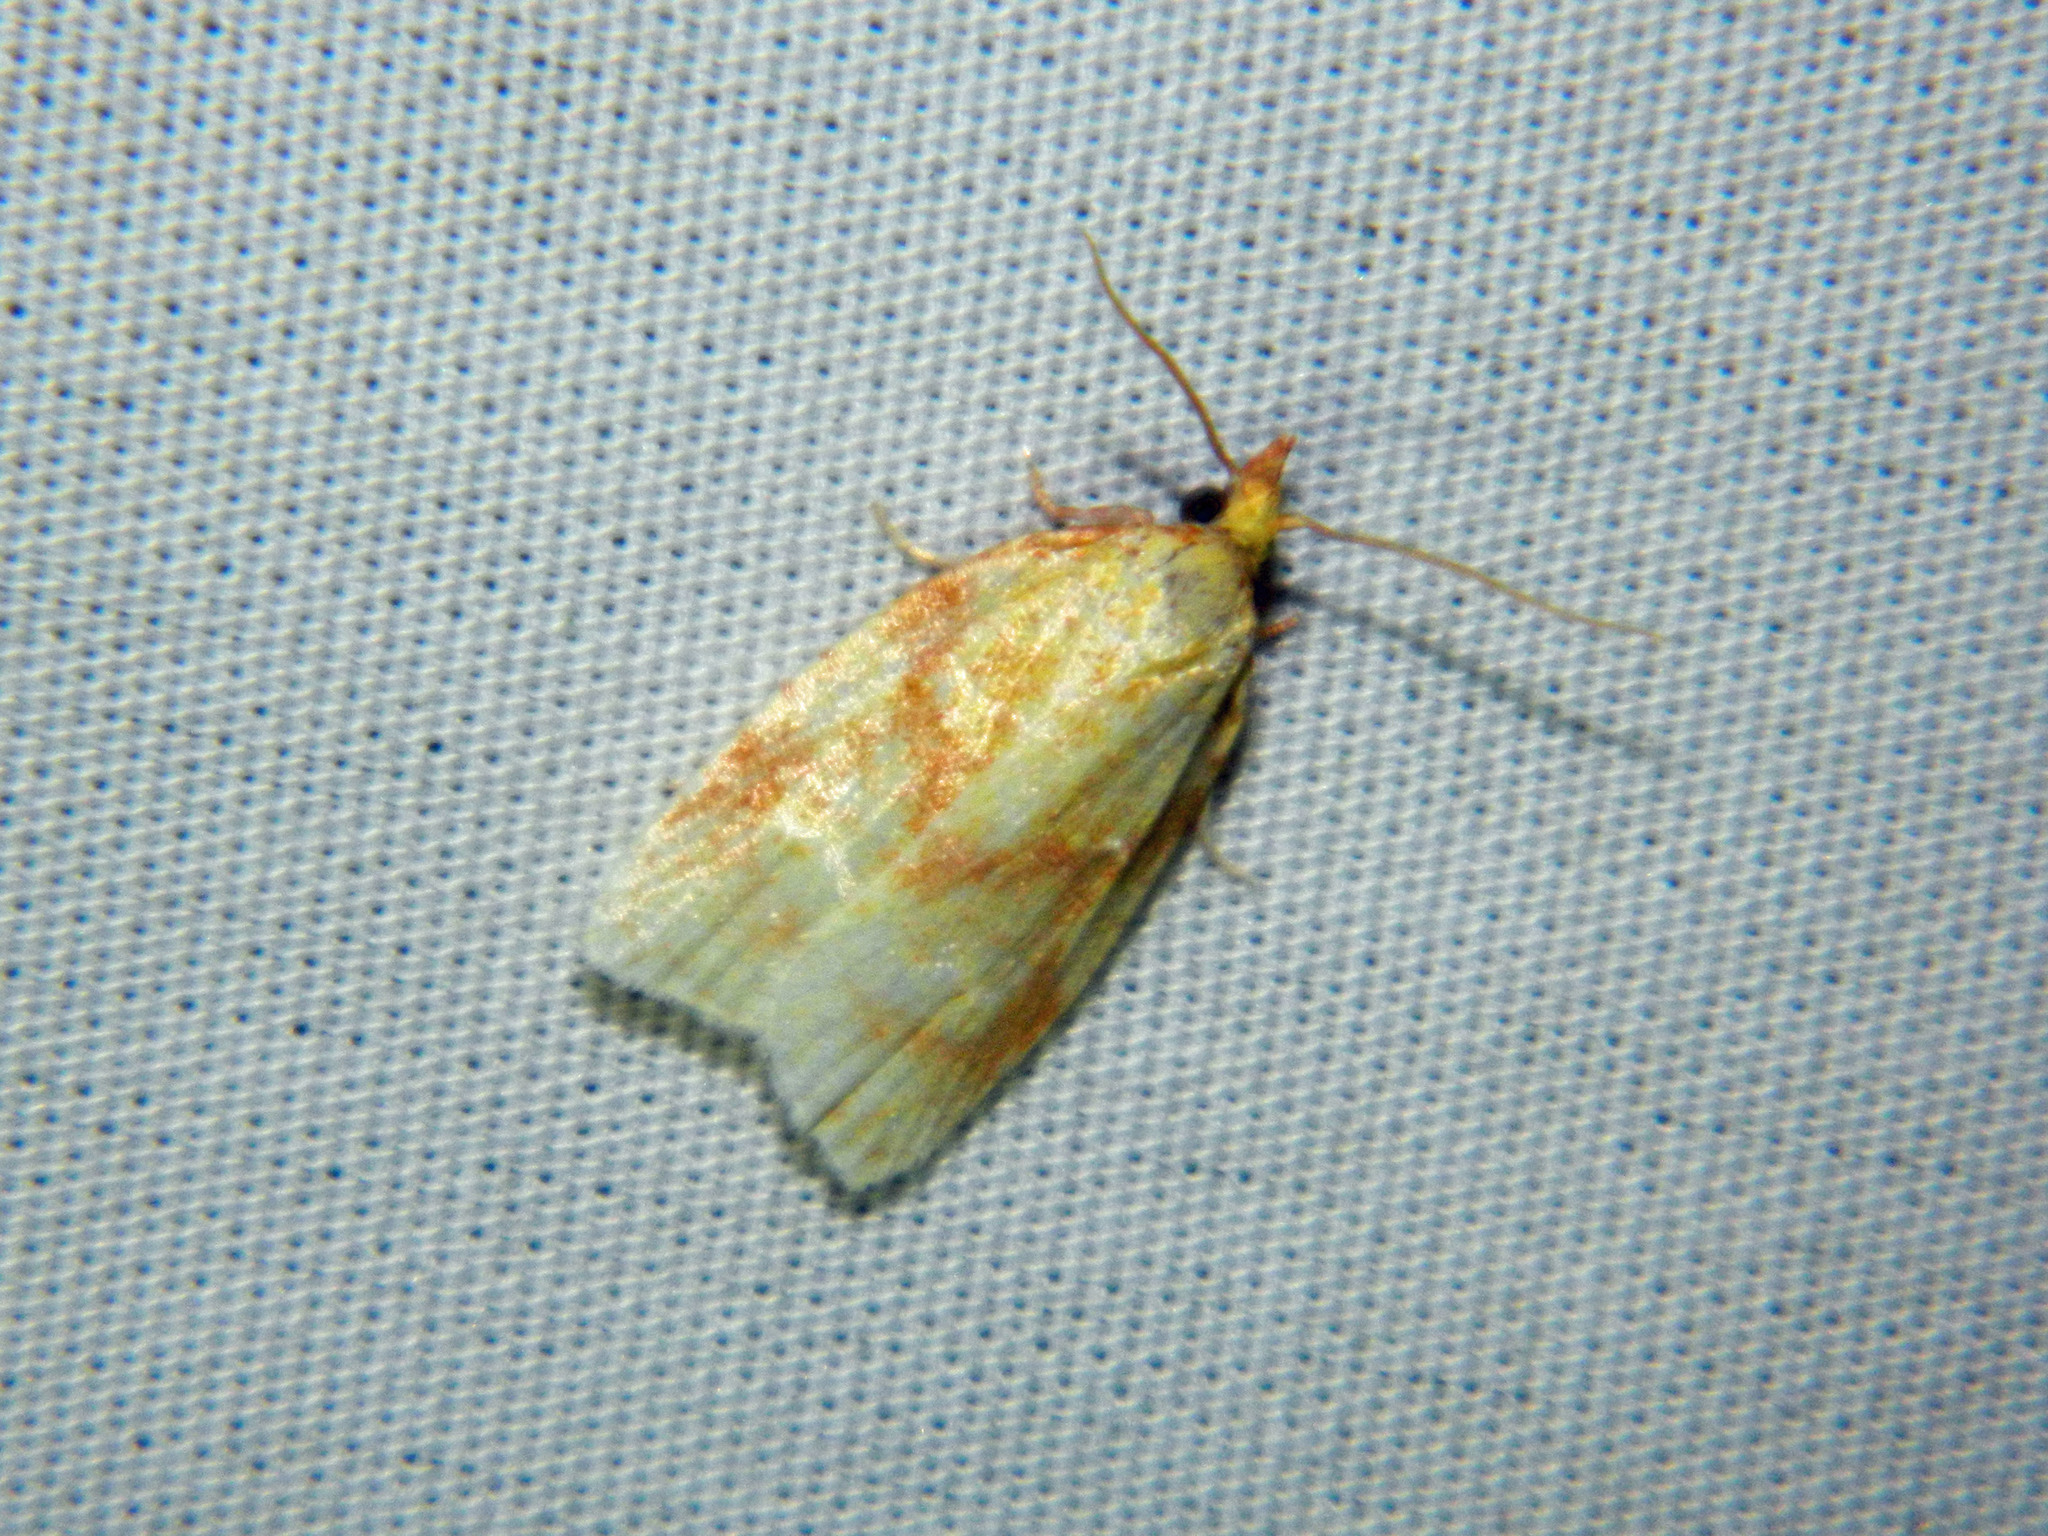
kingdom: Animalia
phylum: Arthropoda
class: Insecta
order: Lepidoptera
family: Tortricidae
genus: Cenopis
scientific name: Cenopis pettitana
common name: Maple-basswood leafroller moth
